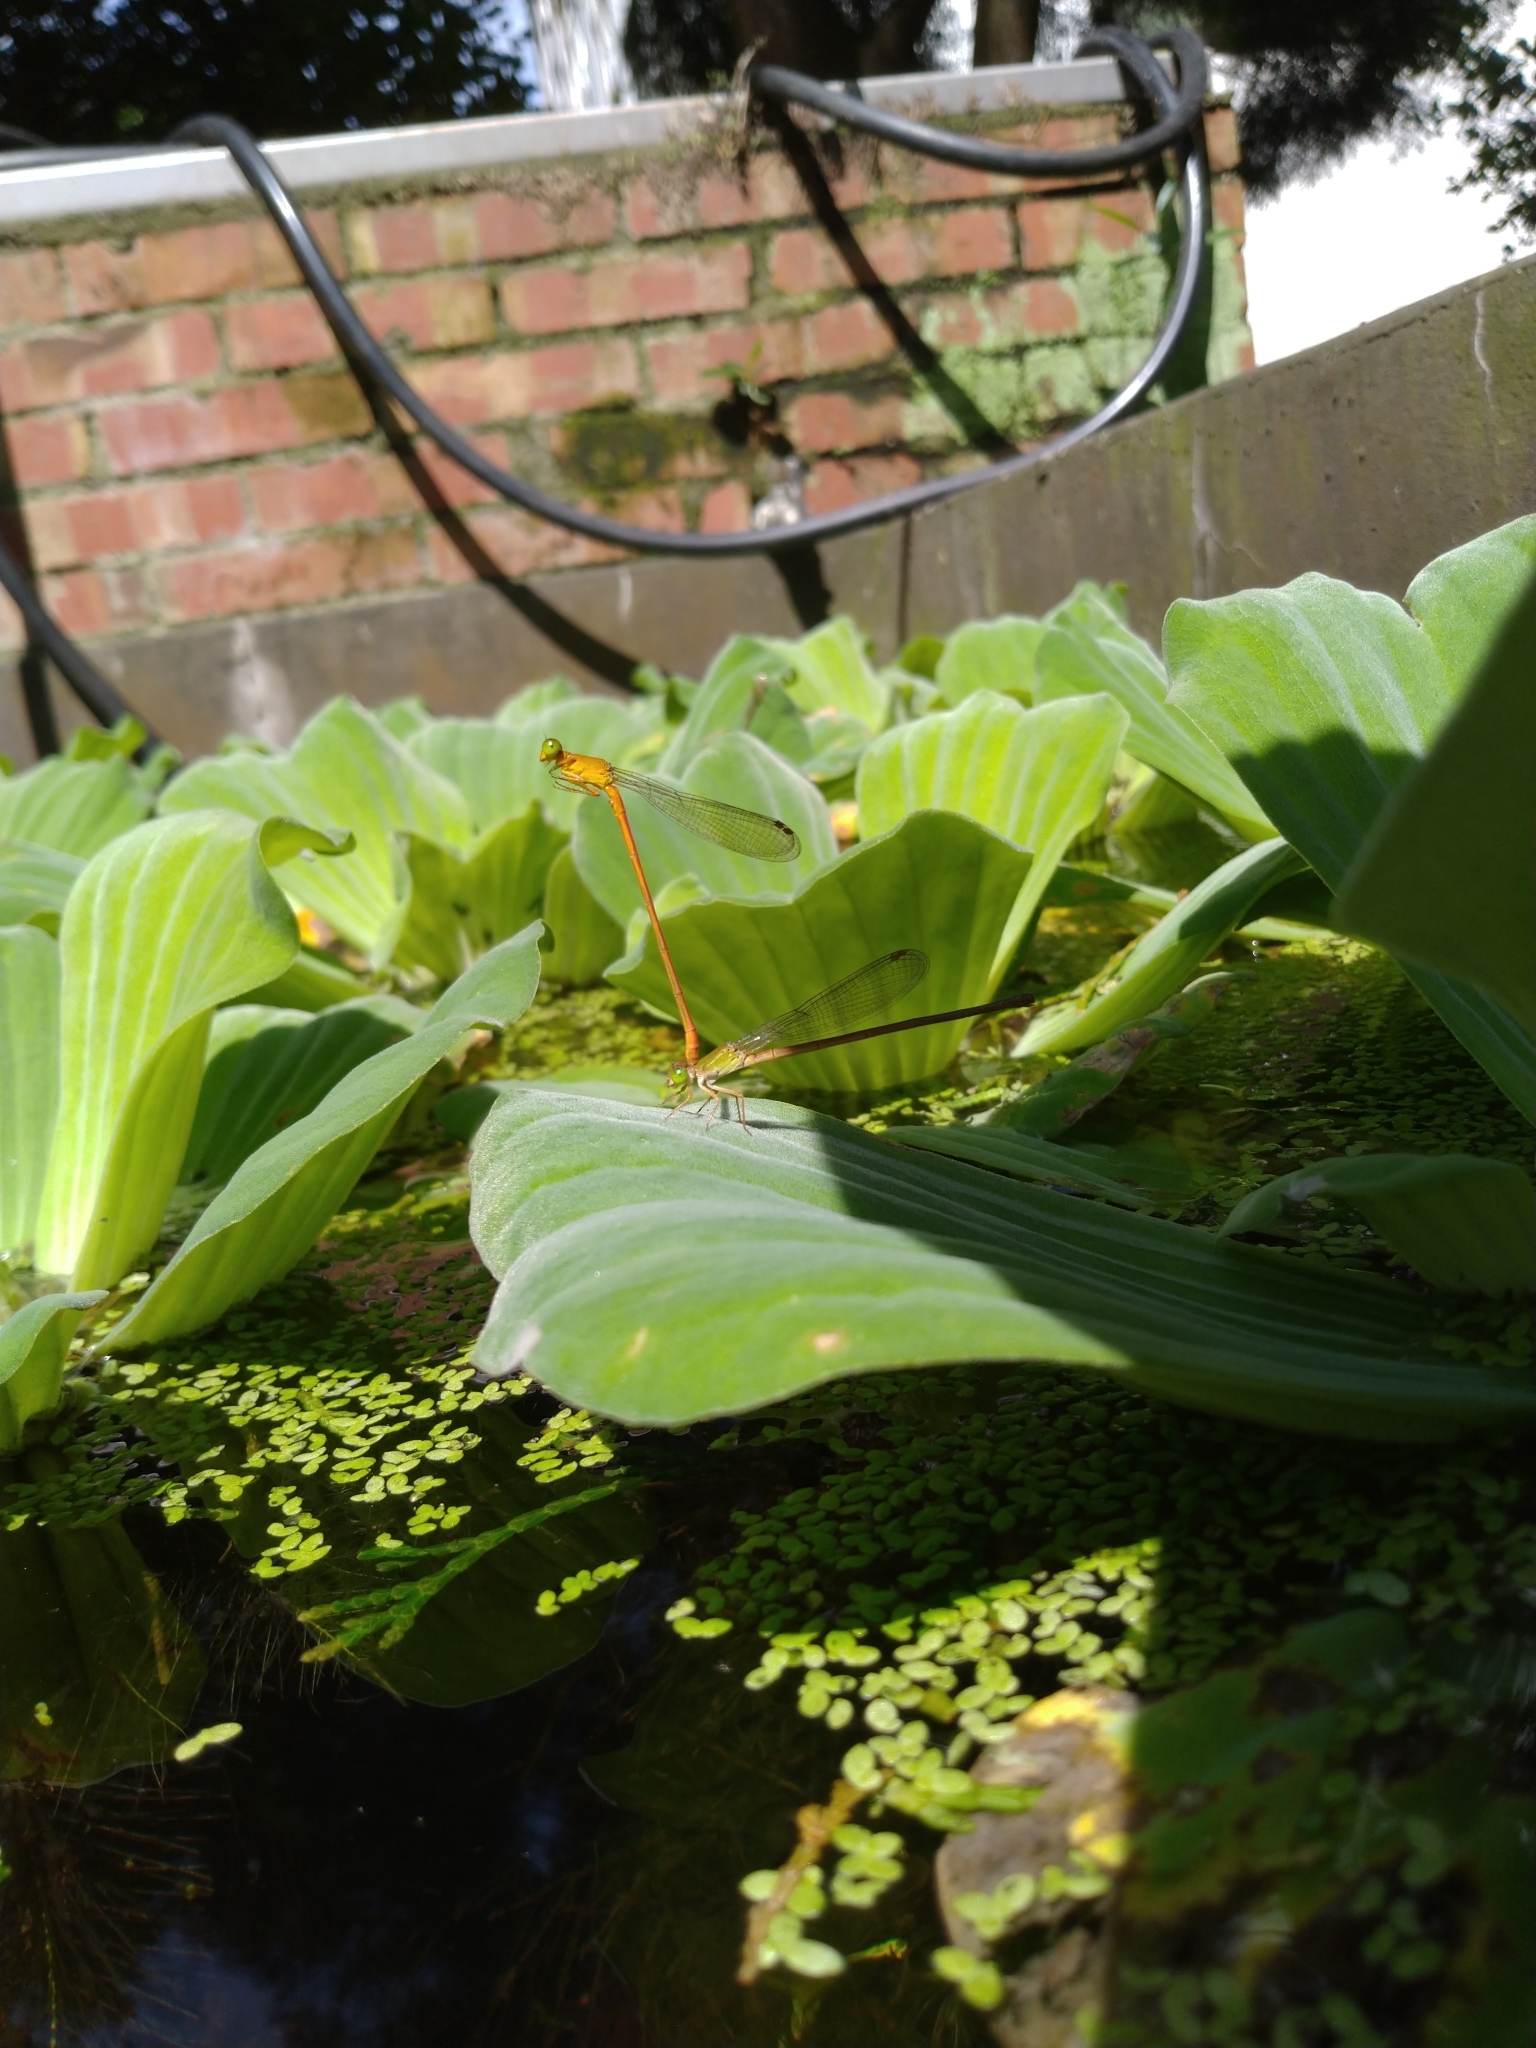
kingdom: Animalia
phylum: Arthropoda
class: Insecta
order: Odonata
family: Coenagrionidae
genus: Ceriagrion
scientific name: Ceriagrion auranticum
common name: Orange-tailed sprite
